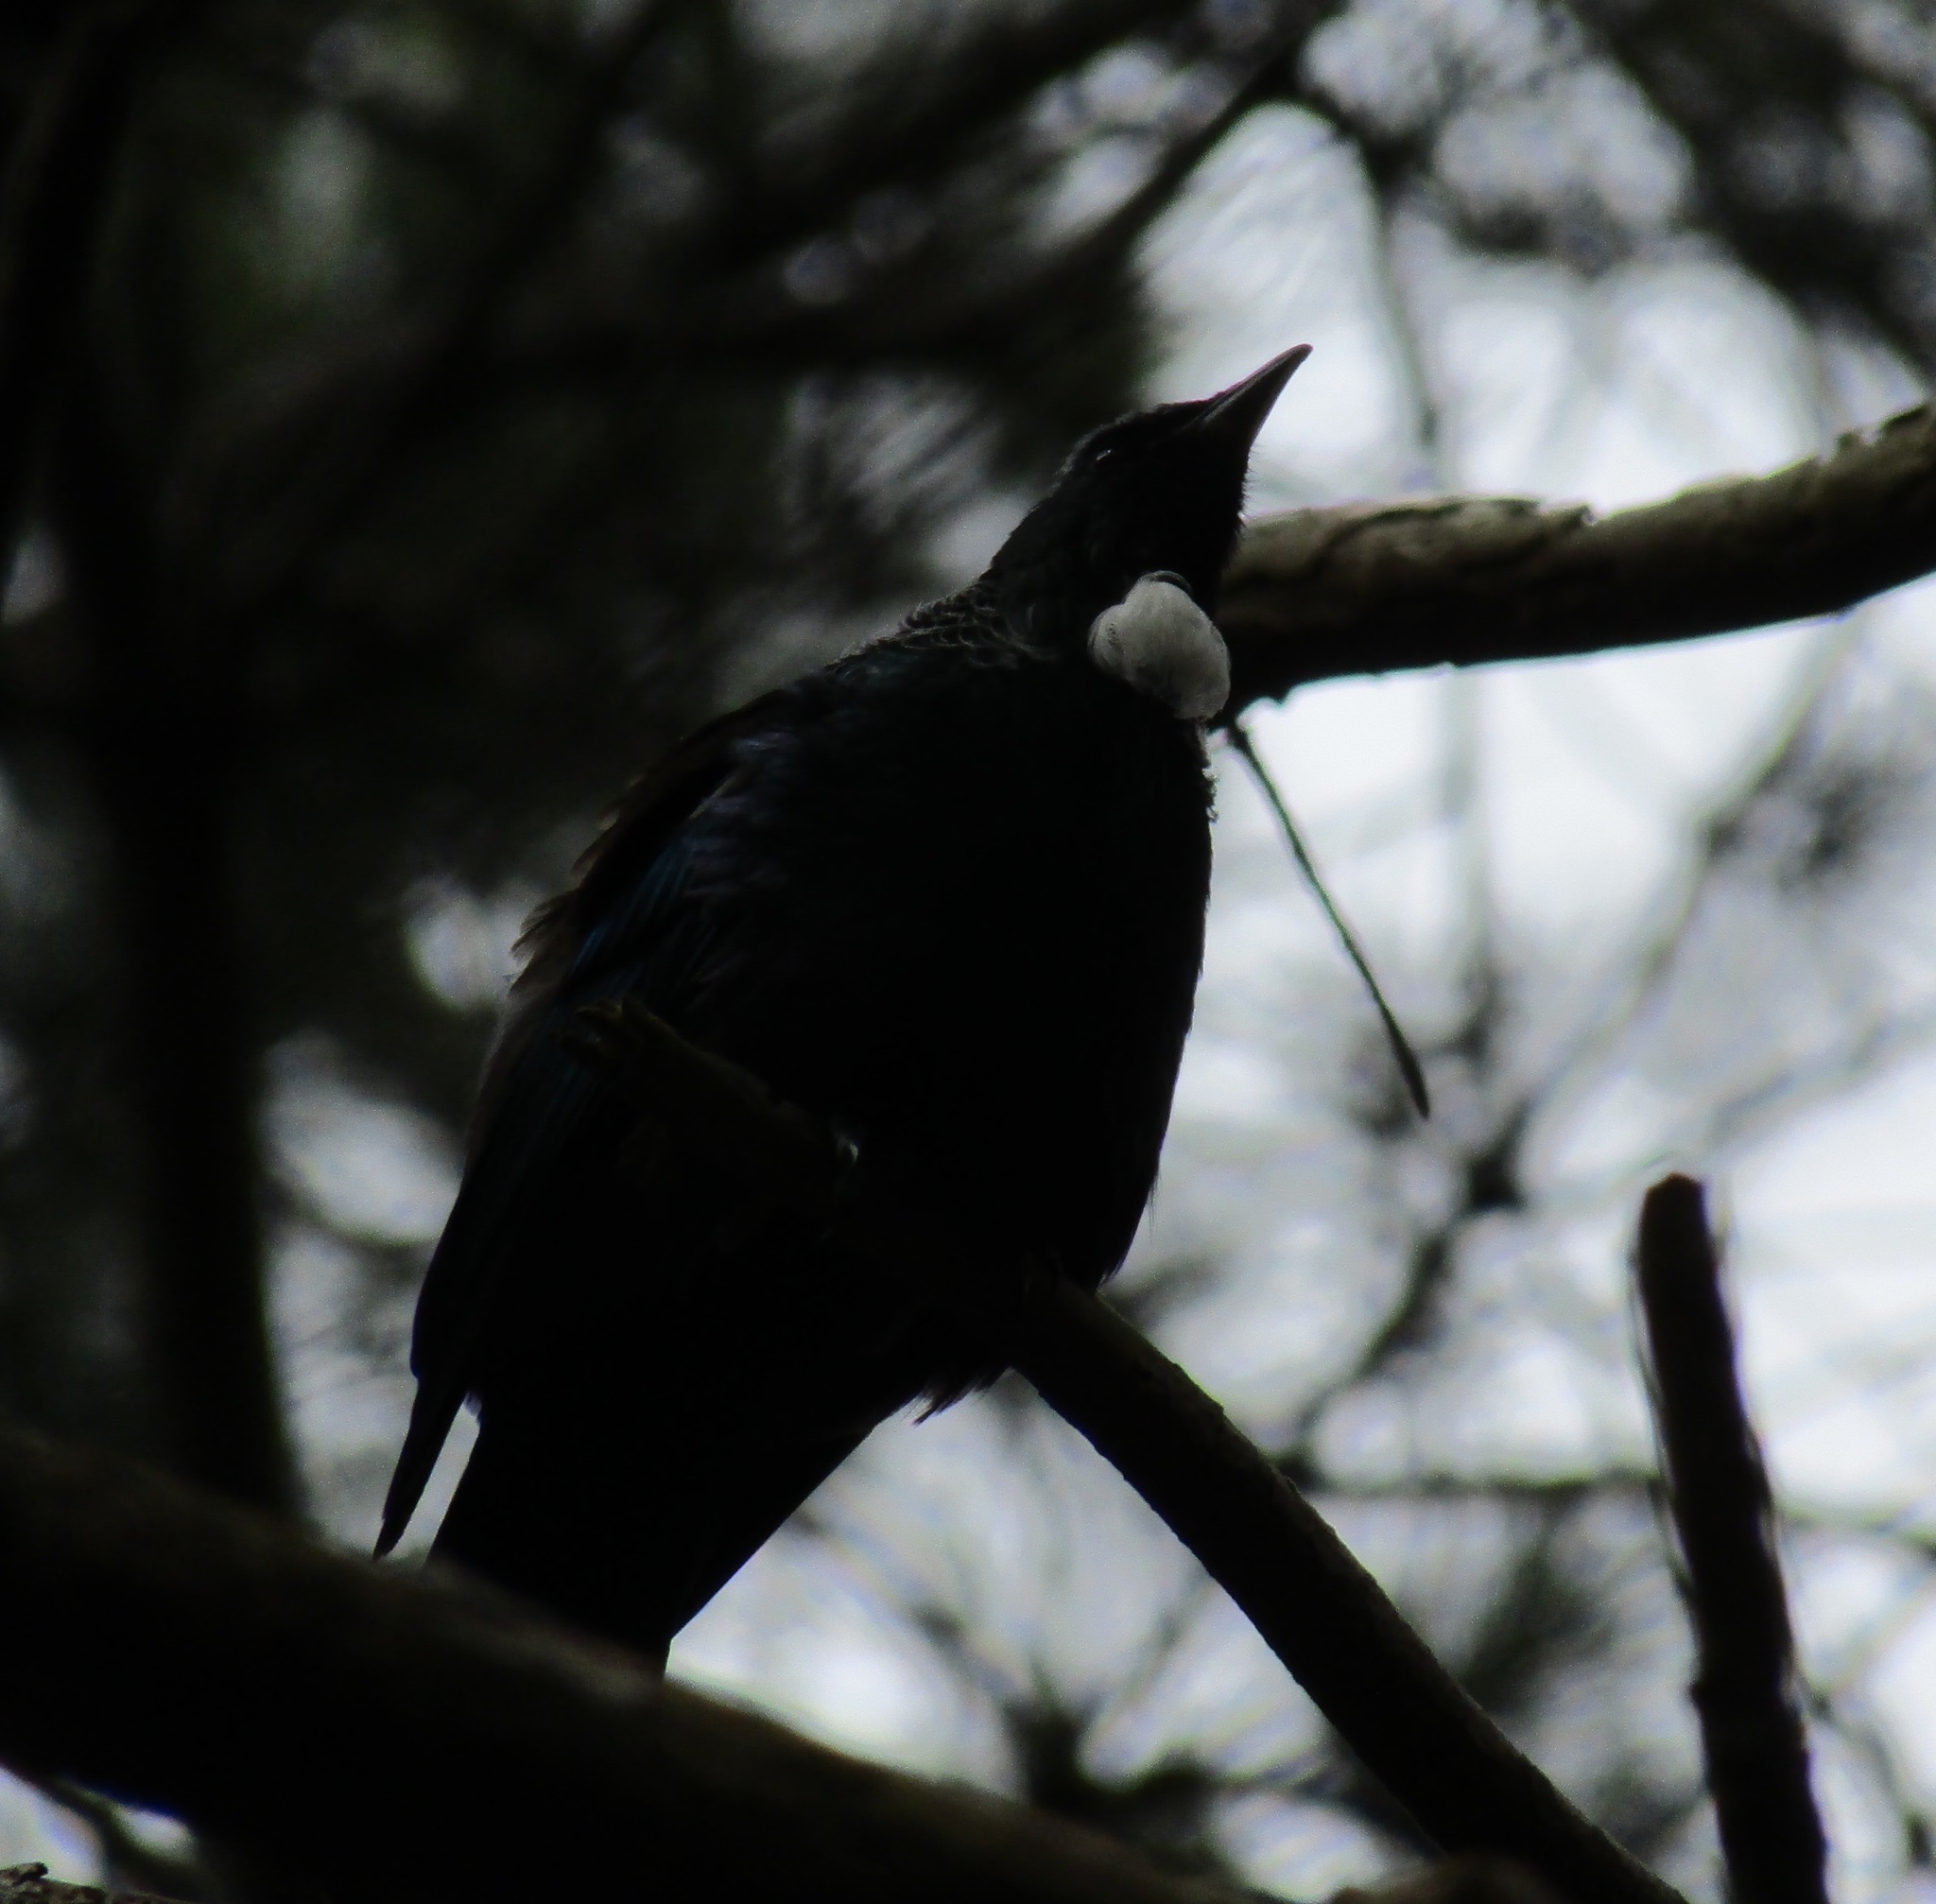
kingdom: Animalia
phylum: Chordata
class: Aves
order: Passeriformes
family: Meliphagidae
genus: Prosthemadera
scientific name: Prosthemadera novaeseelandiae
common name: Tui
